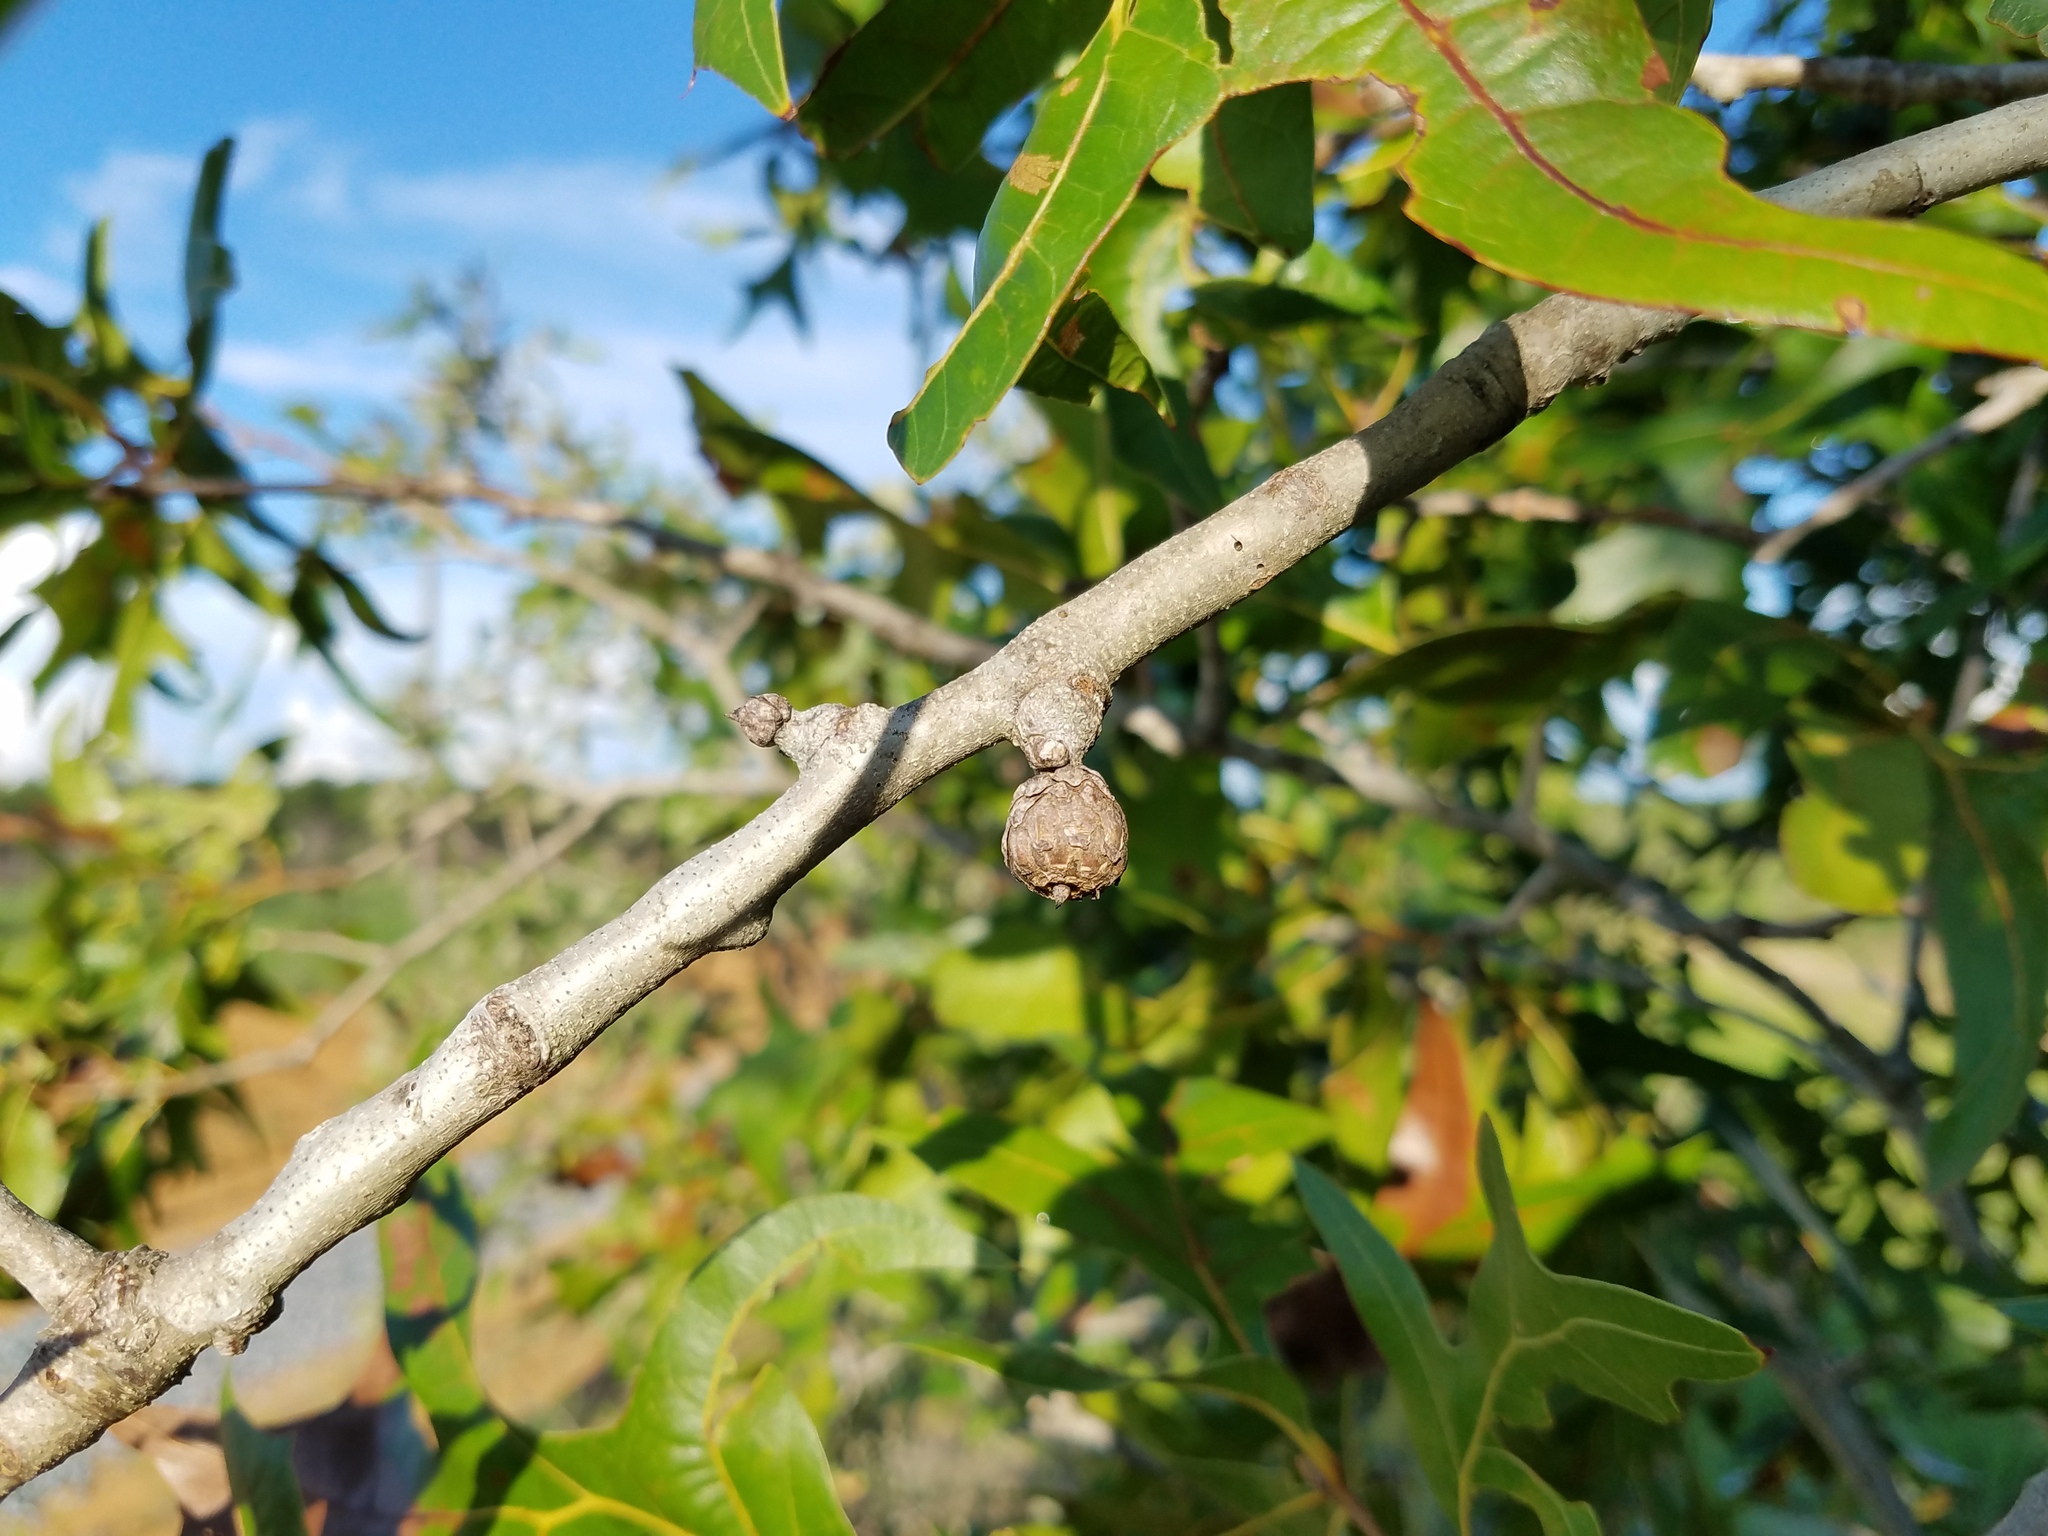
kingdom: Plantae
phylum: Tracheophyta
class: Magnoliopsida
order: Fagales
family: Fagaceae
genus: Quercus
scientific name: Quercus laevis
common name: Turkey oak
